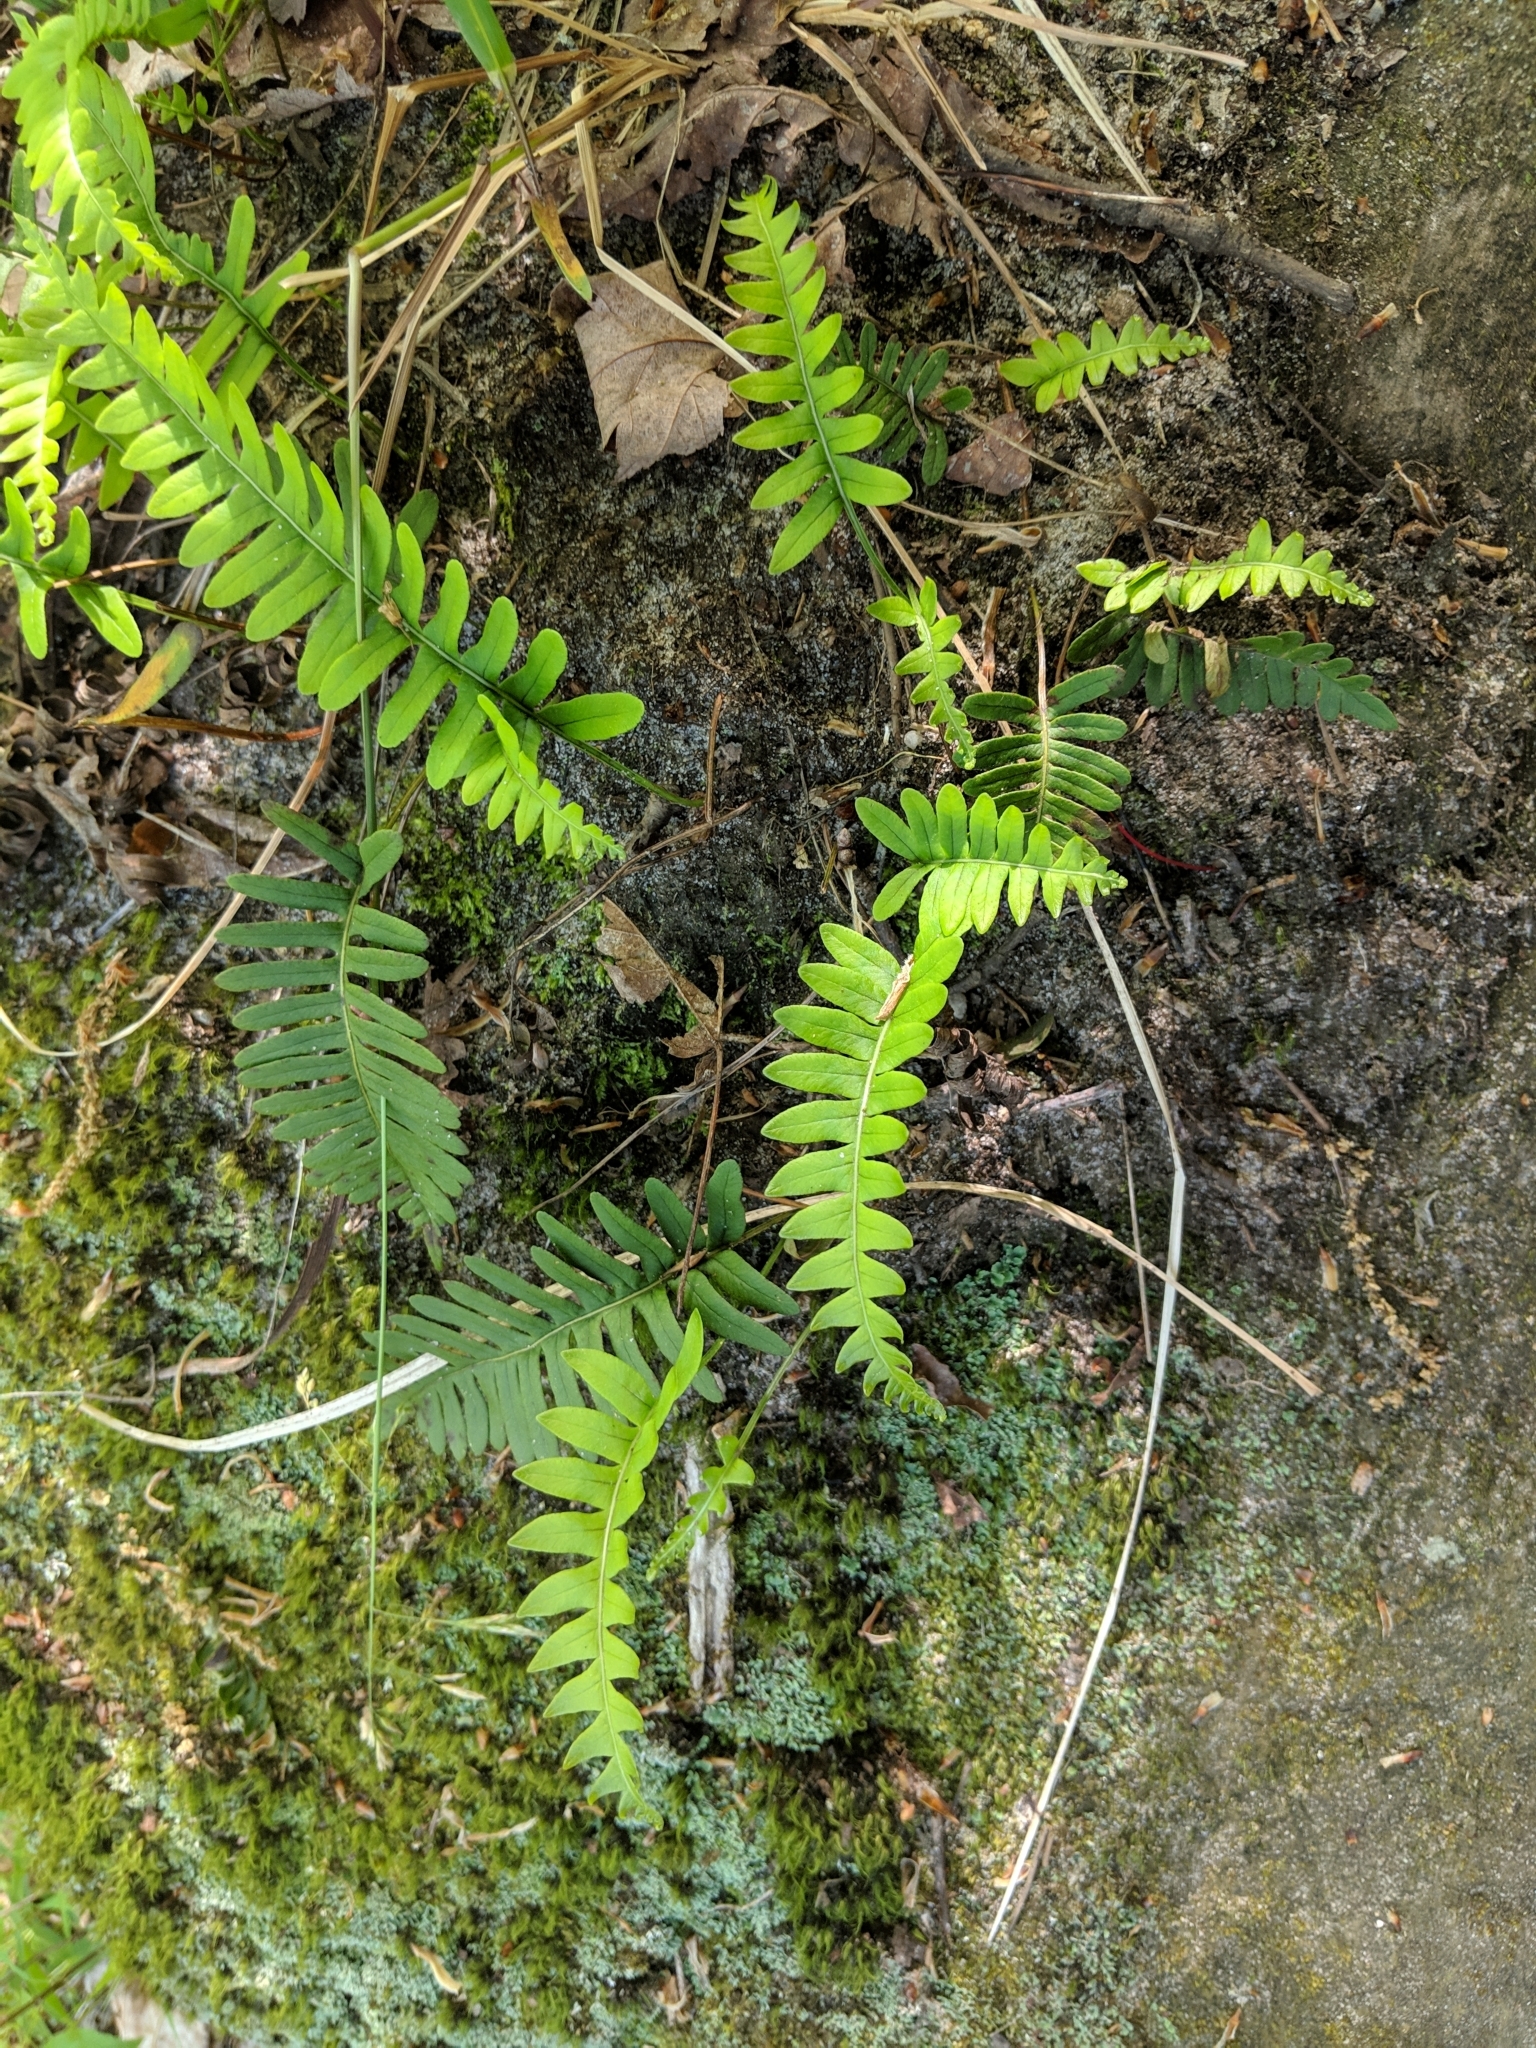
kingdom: Plantae
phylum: Tracheophyta
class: Polypodiopsida
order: Polypodiales
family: Polypodiaceae
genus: Polypodium
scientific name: Polypodium virginianum
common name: American wall fern
